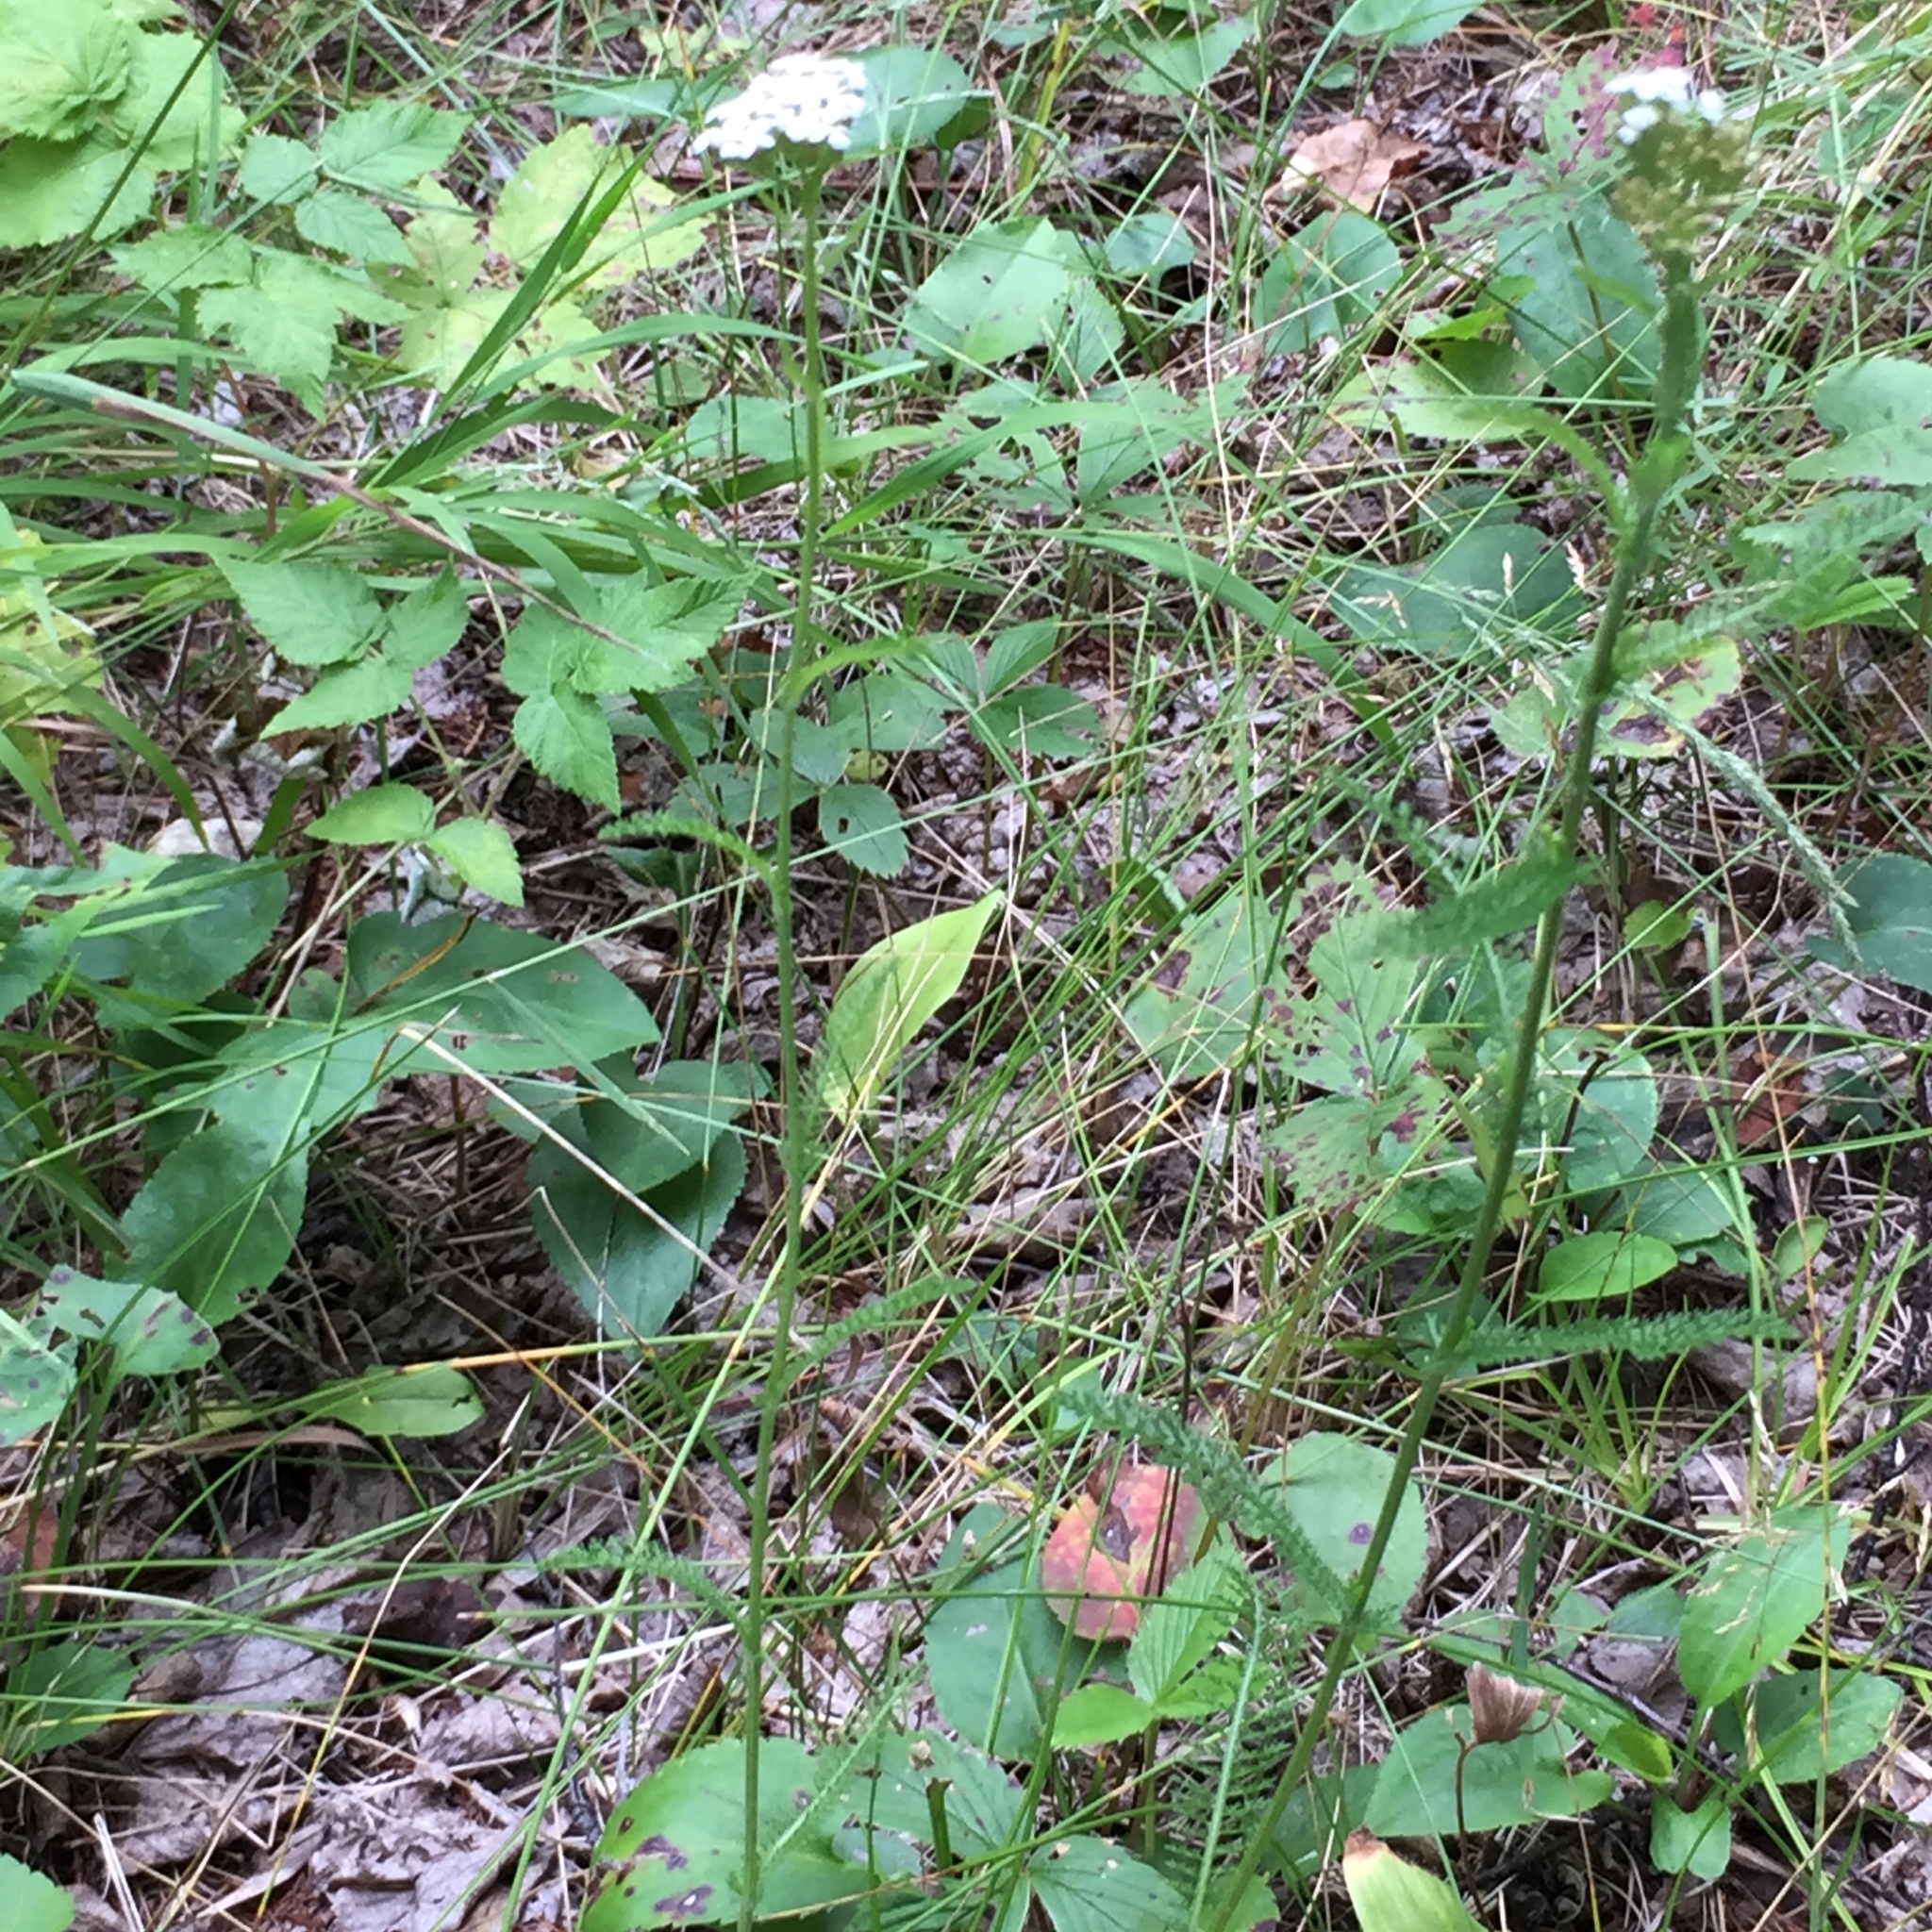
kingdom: Plantae
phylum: Tracheophyta
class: Magnoliopsida
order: Asterales
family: Asteraceae
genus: Achillea
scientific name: Achillea millefolium
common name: Yarrow
